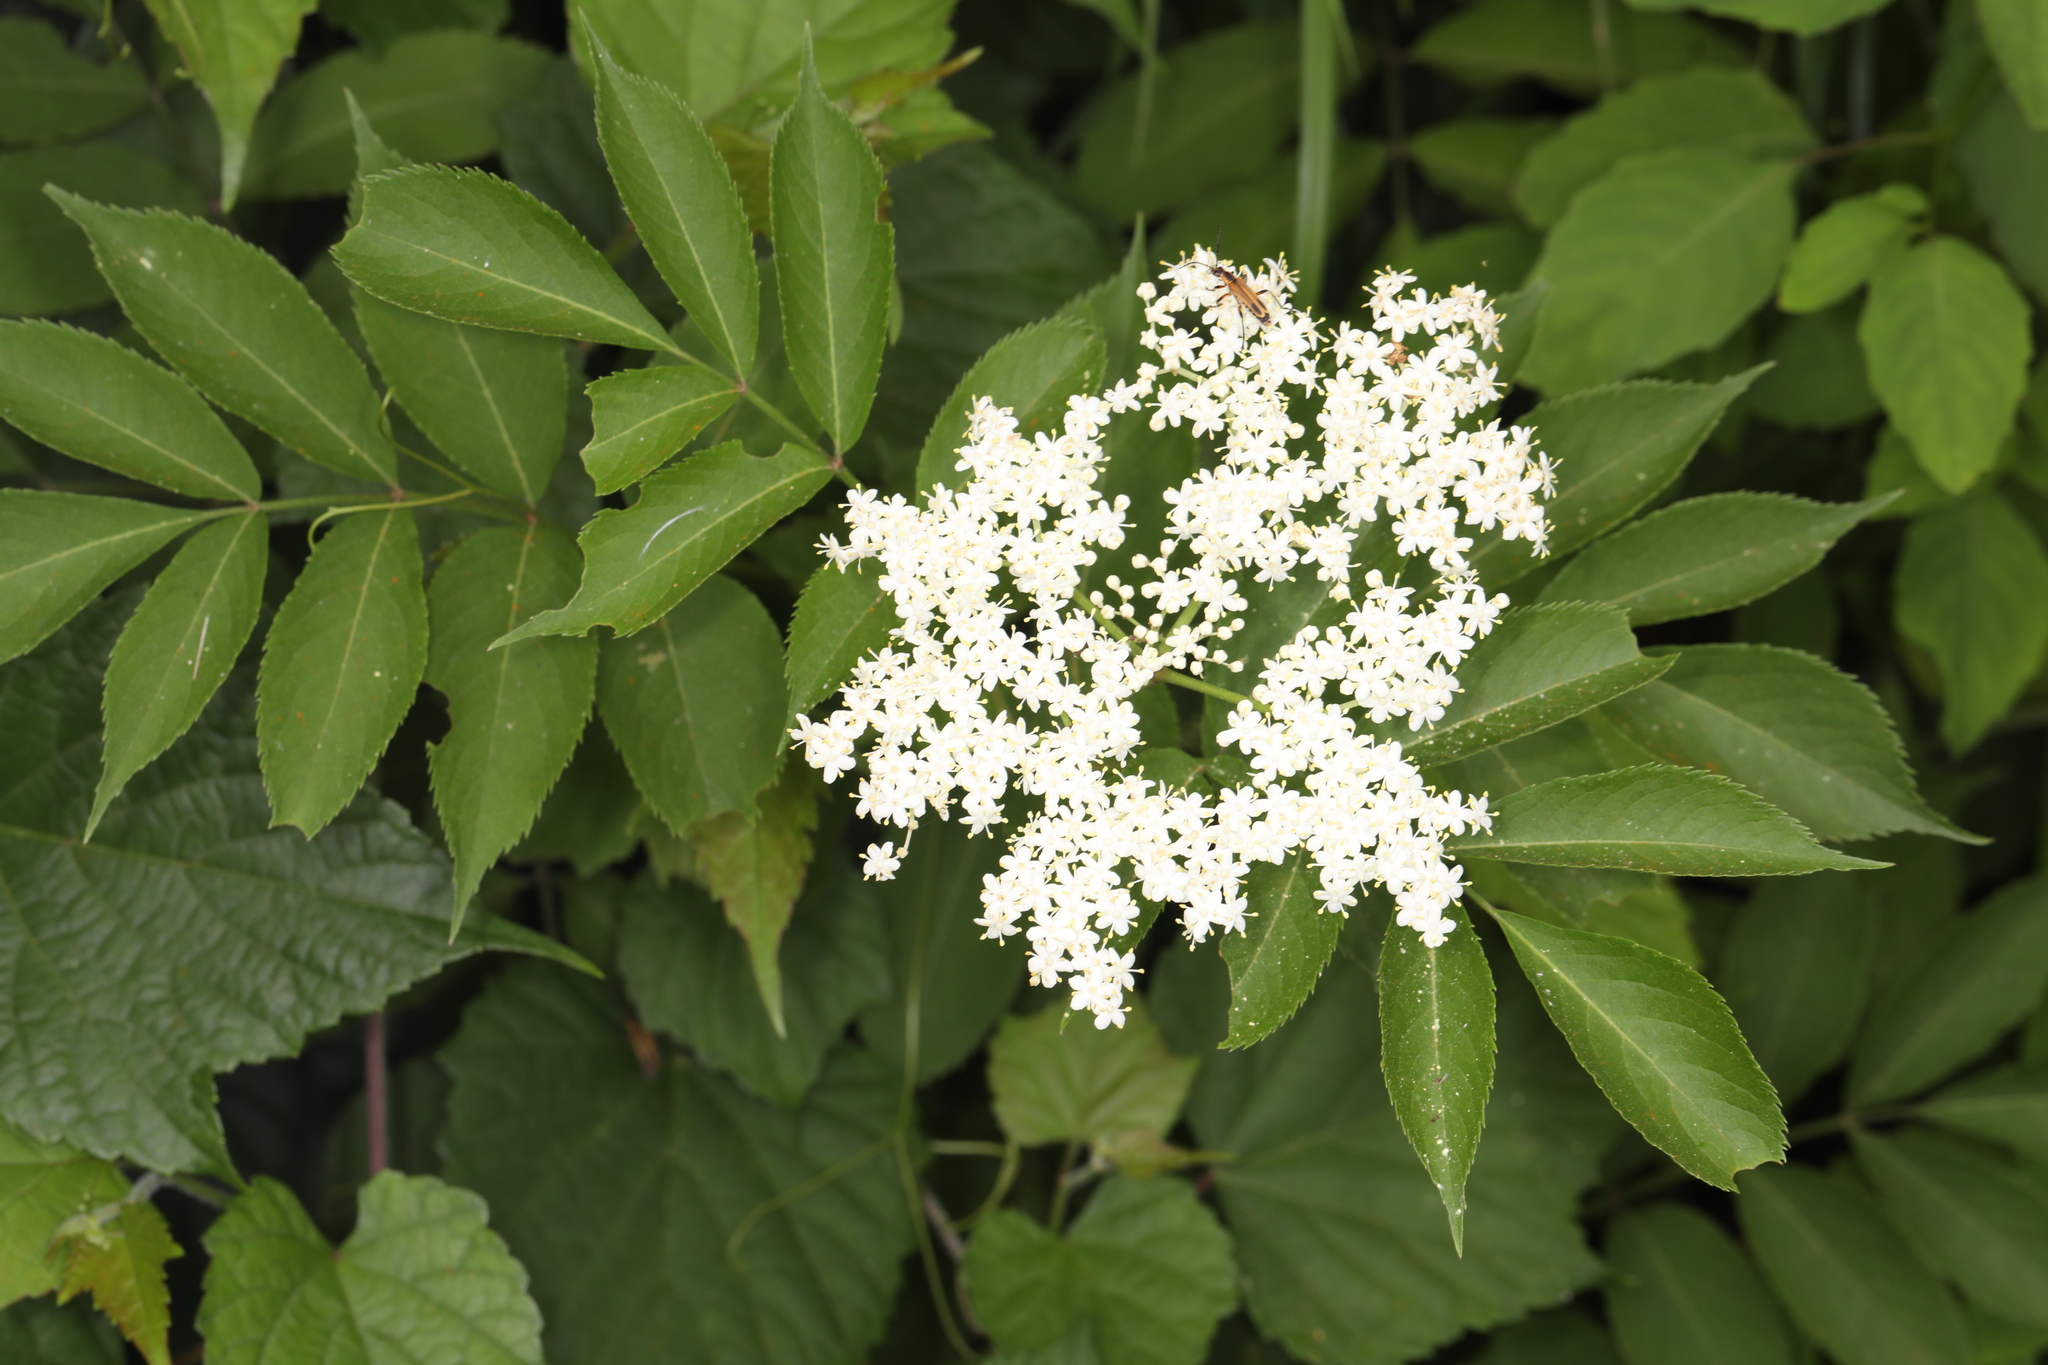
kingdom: Plantae
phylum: Tracheophyta
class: Magnoliopsida
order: Dipsacales
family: Viburnaceae
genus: Sambucus
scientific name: Sambucus canadensis
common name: American elder
